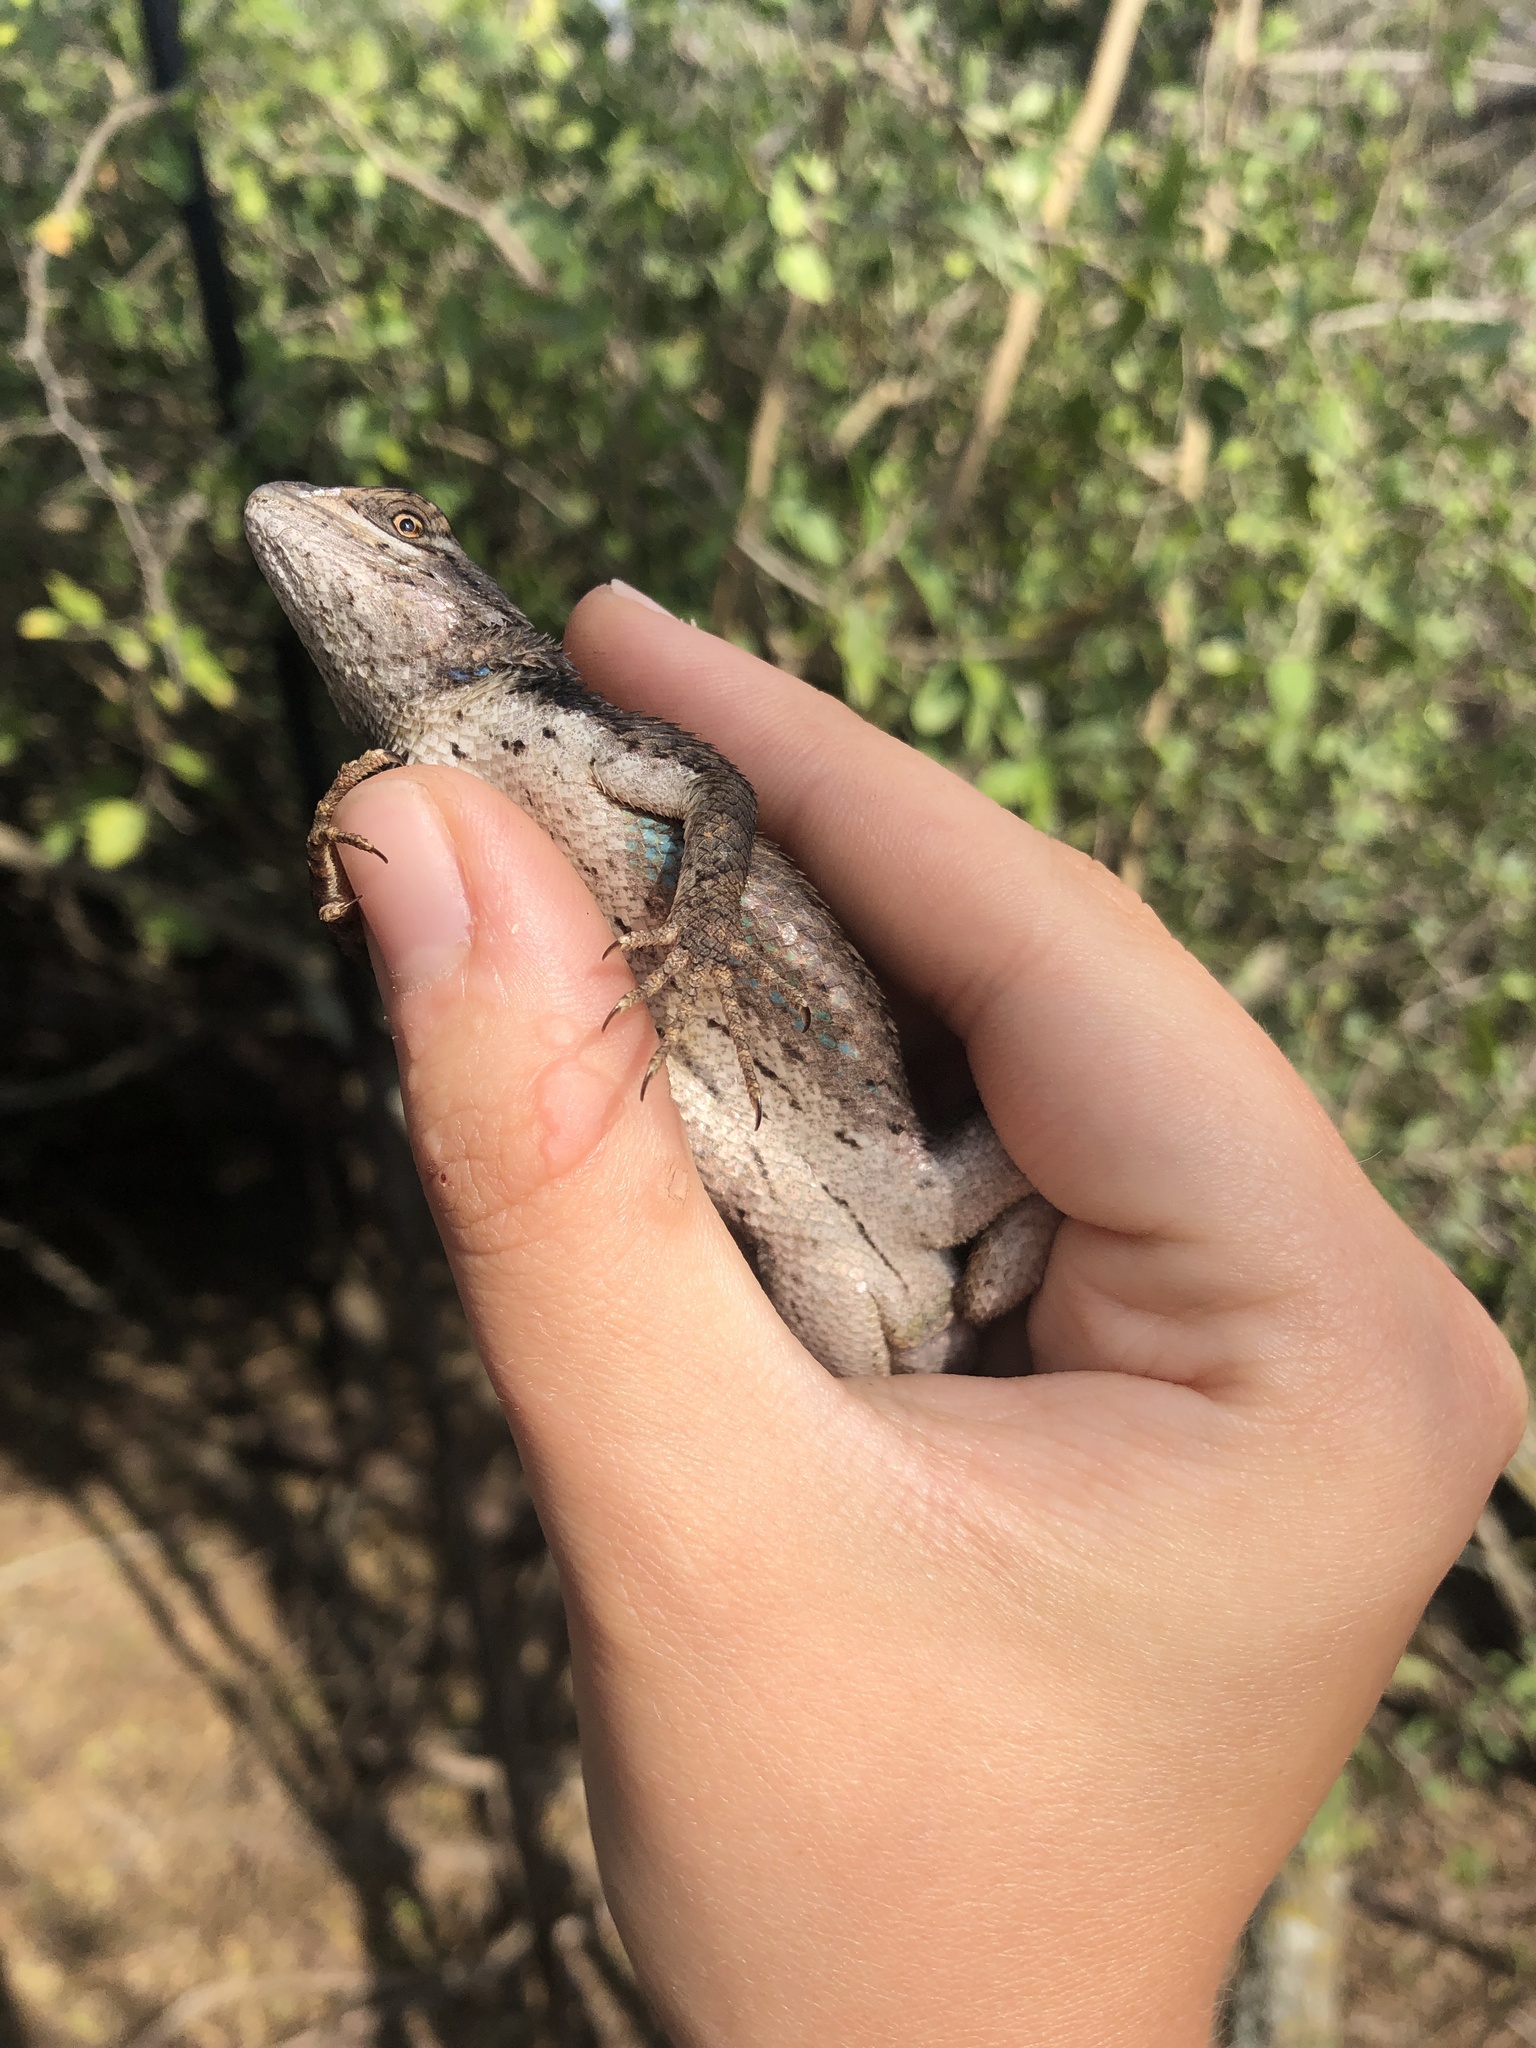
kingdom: Animalia
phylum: Chordata
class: Squamata
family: Phrynosomatidae
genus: Sceloporus
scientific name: Sceloporus olivaceus
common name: Texas spiny lizard
